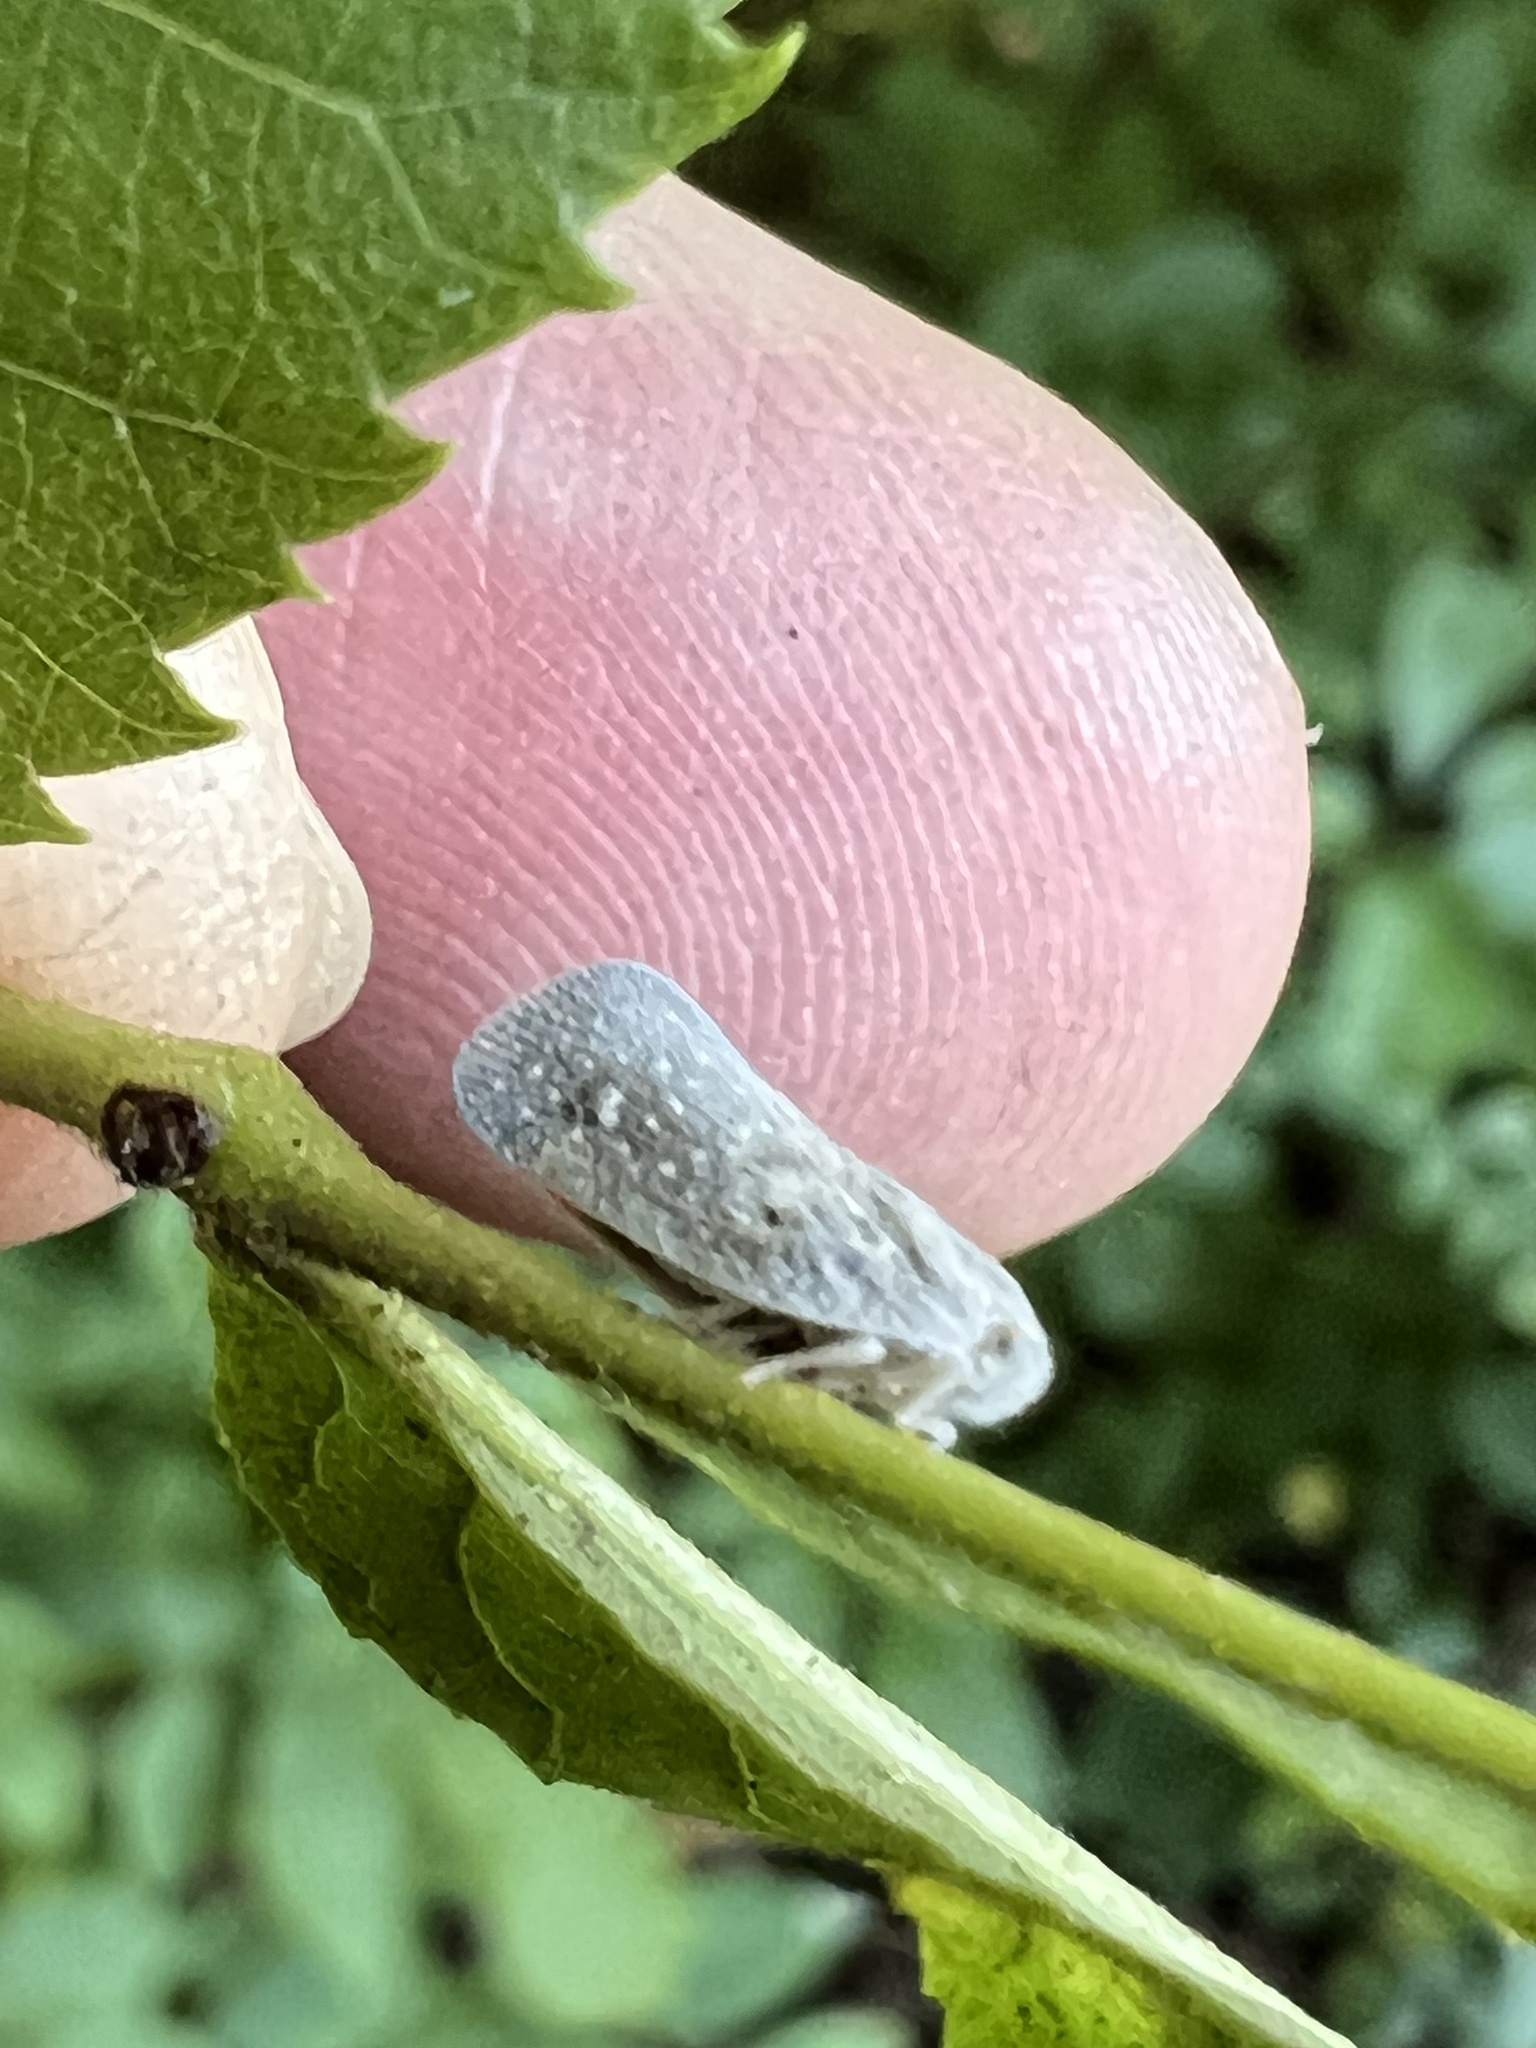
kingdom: Animalia
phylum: Arthropoda
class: Insecta
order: Hemiptera
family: Flatidae
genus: Metcalfa
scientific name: Metcalfa pruinosa
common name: Citrus flatid planthopper
